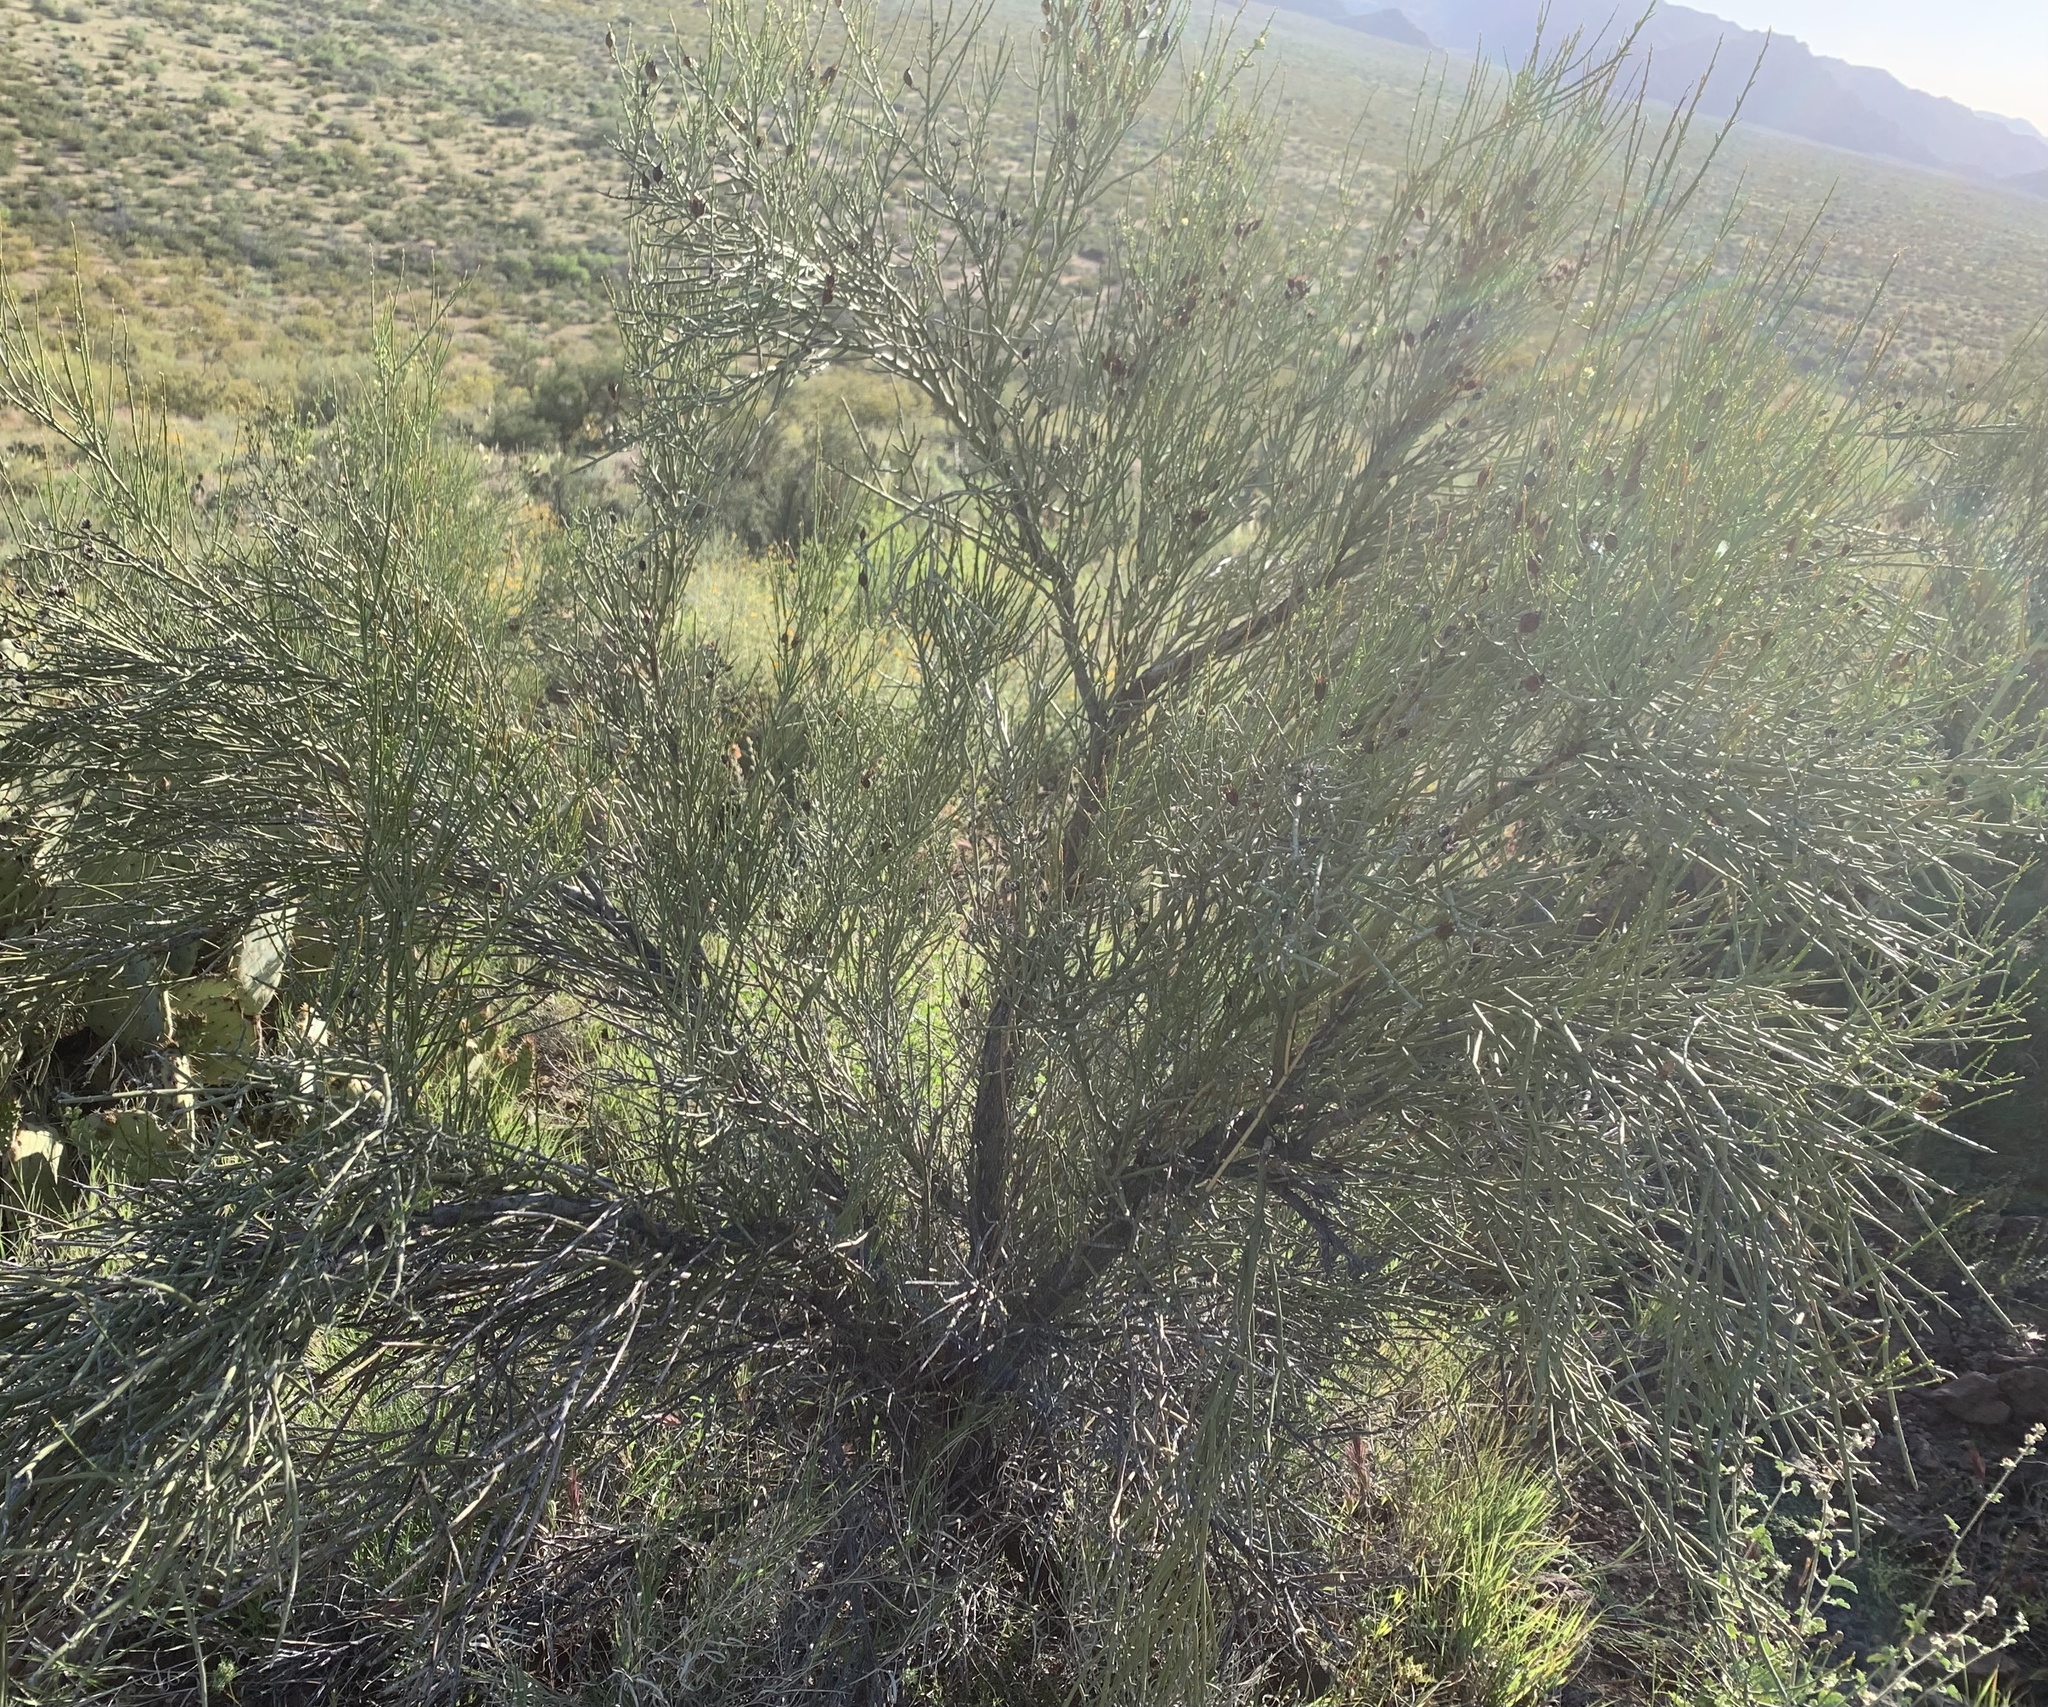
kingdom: Plantae
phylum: Tracheophyta
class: Magnoliopsida
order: Celastrales
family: Celastraceae
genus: Canotia
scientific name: Canotia holacantha
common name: Crucifixion thorns
